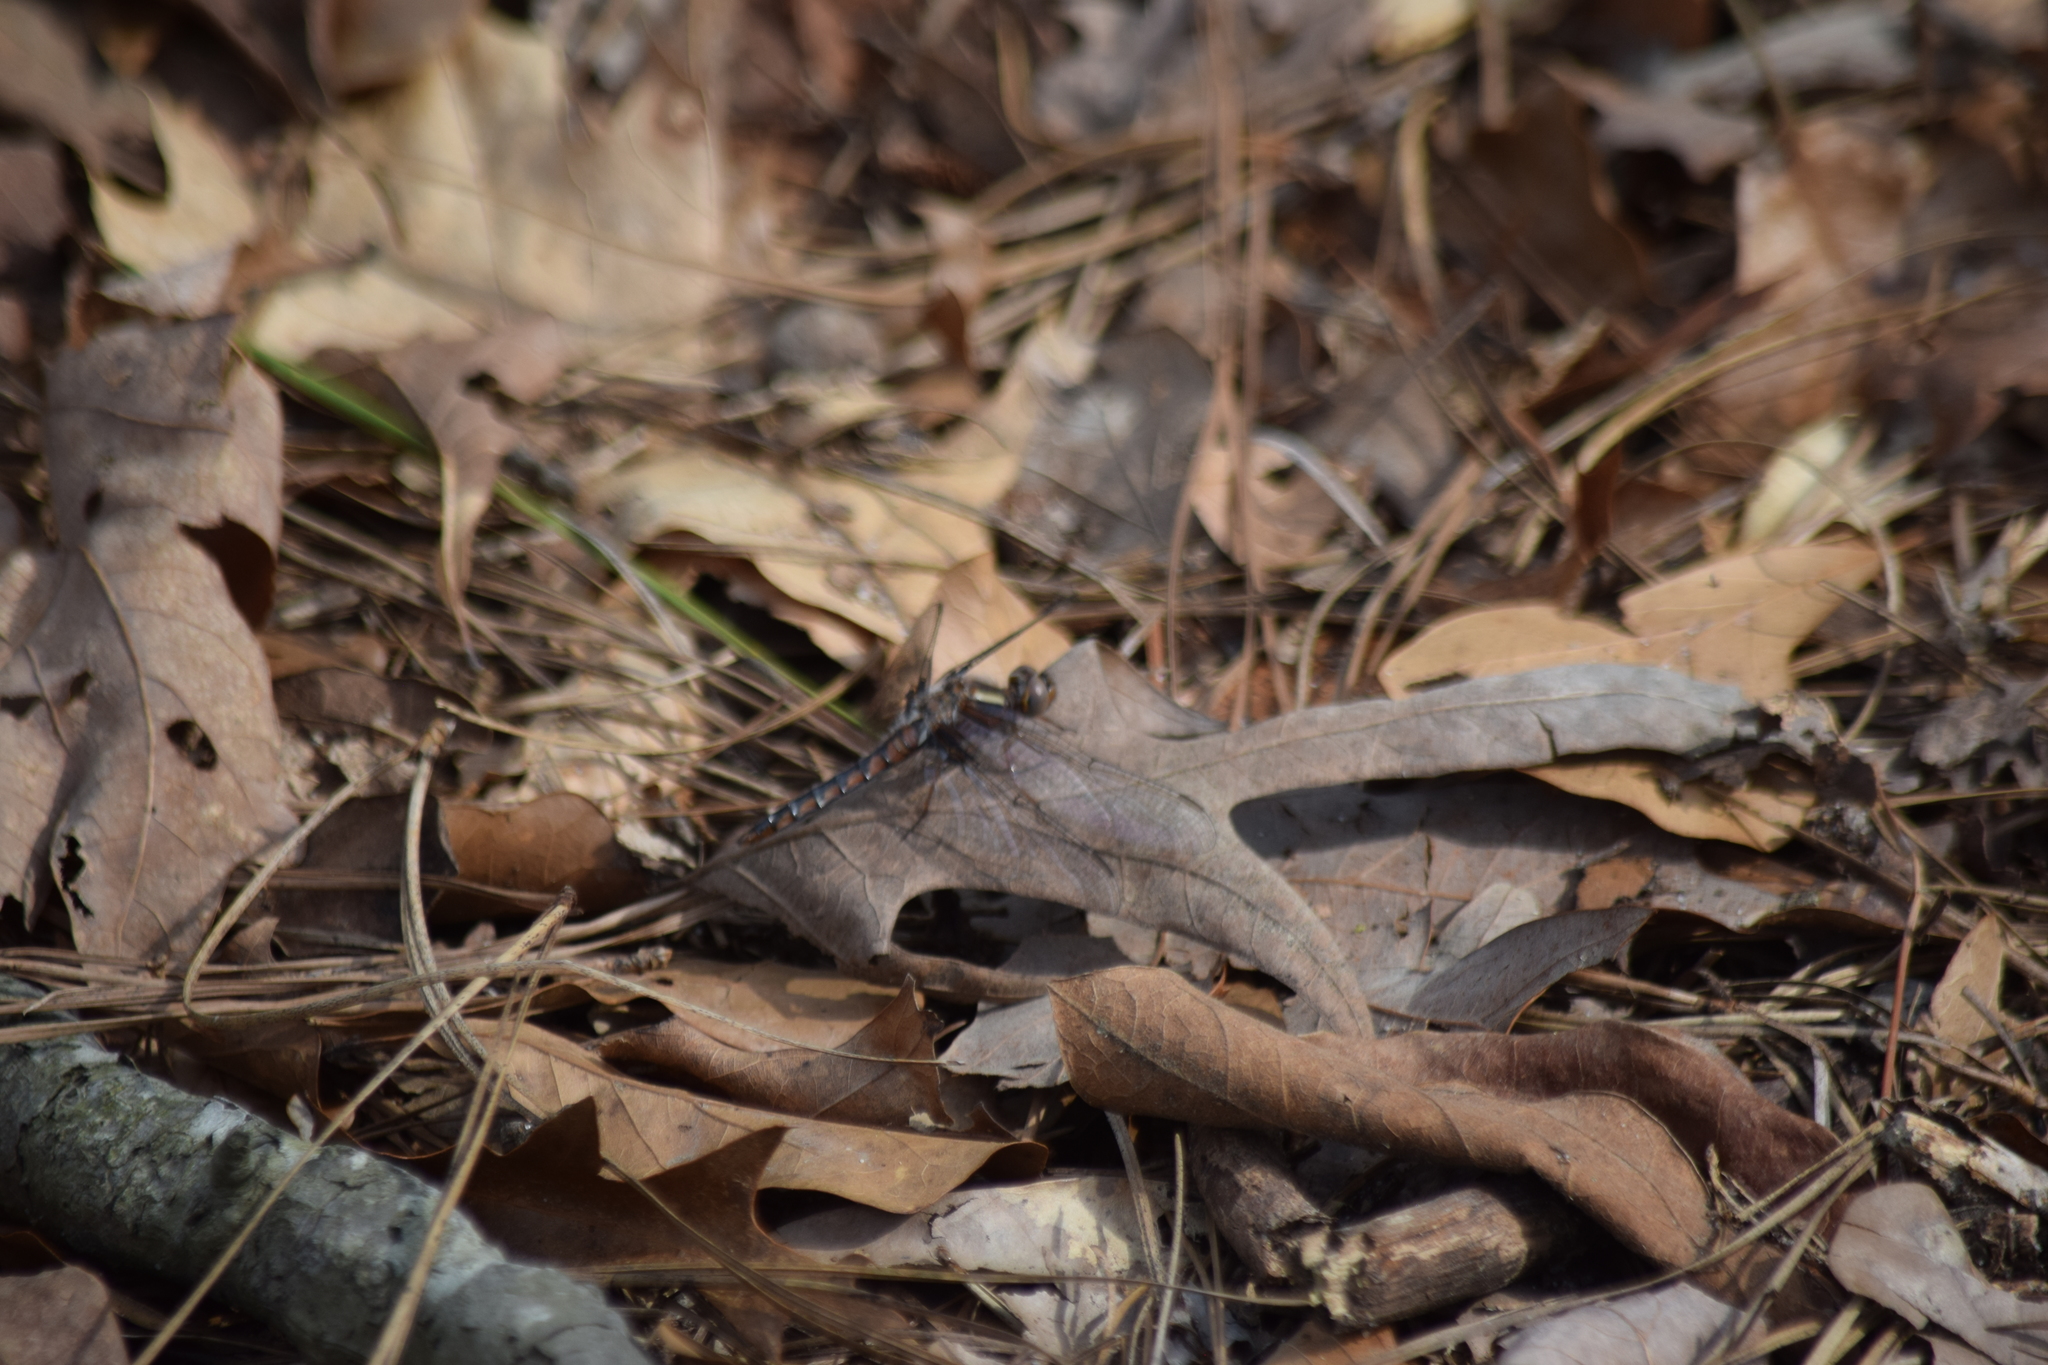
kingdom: Animalia
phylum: Arthropoda
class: Insecta
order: Odonata
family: Libellulidae
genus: Ladona
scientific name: Ladona deplanata
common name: Blue corporal
